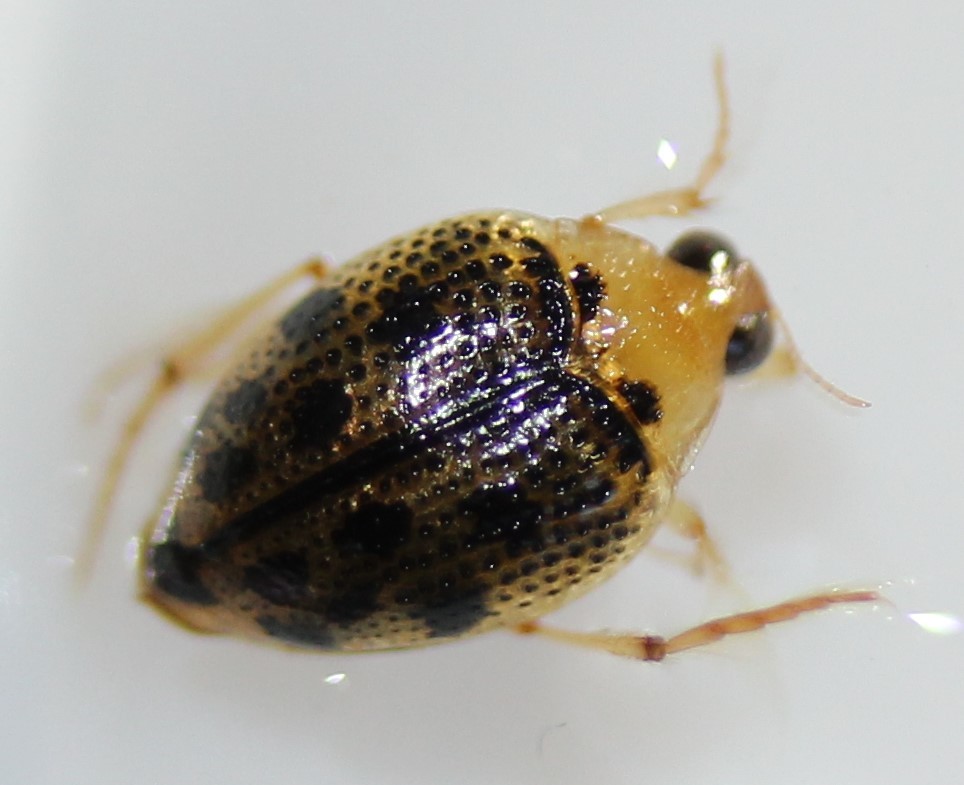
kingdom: Animalia
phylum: Arthropoda
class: Insecta
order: Coleoptera
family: Haliplidae
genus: Peltodytes
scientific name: Peltodytes
